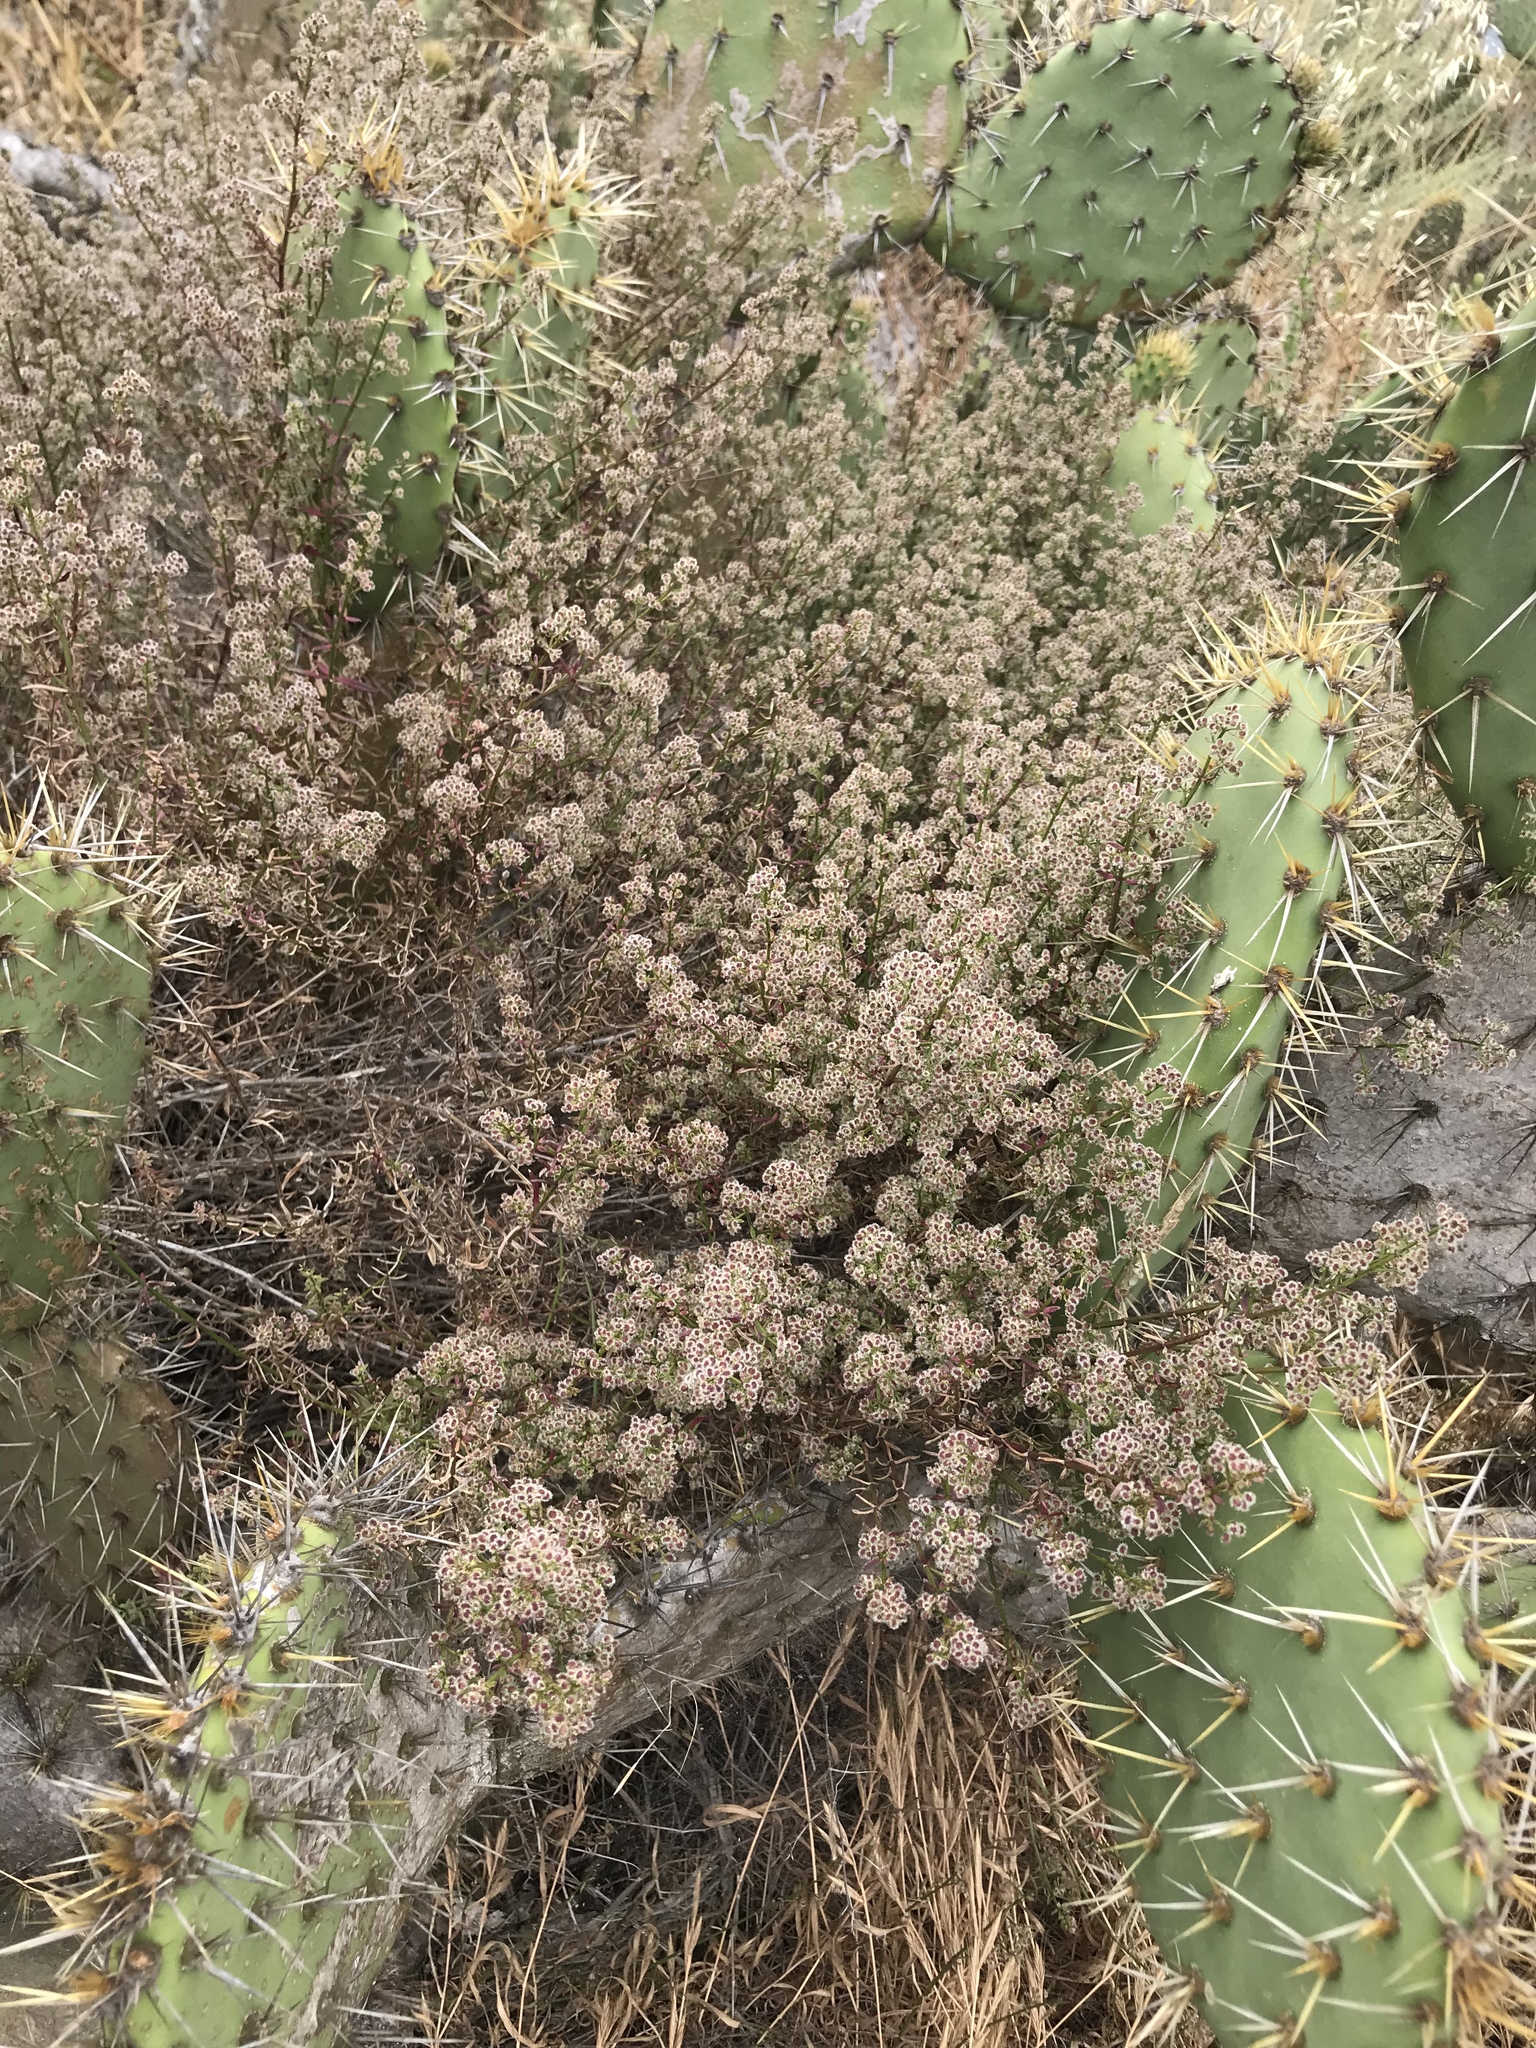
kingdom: Plantae
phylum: Tracheophyta
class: Magnoliopsida
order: Gentianales
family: Rubiaceae
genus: Galium
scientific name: Galium angustifolium
